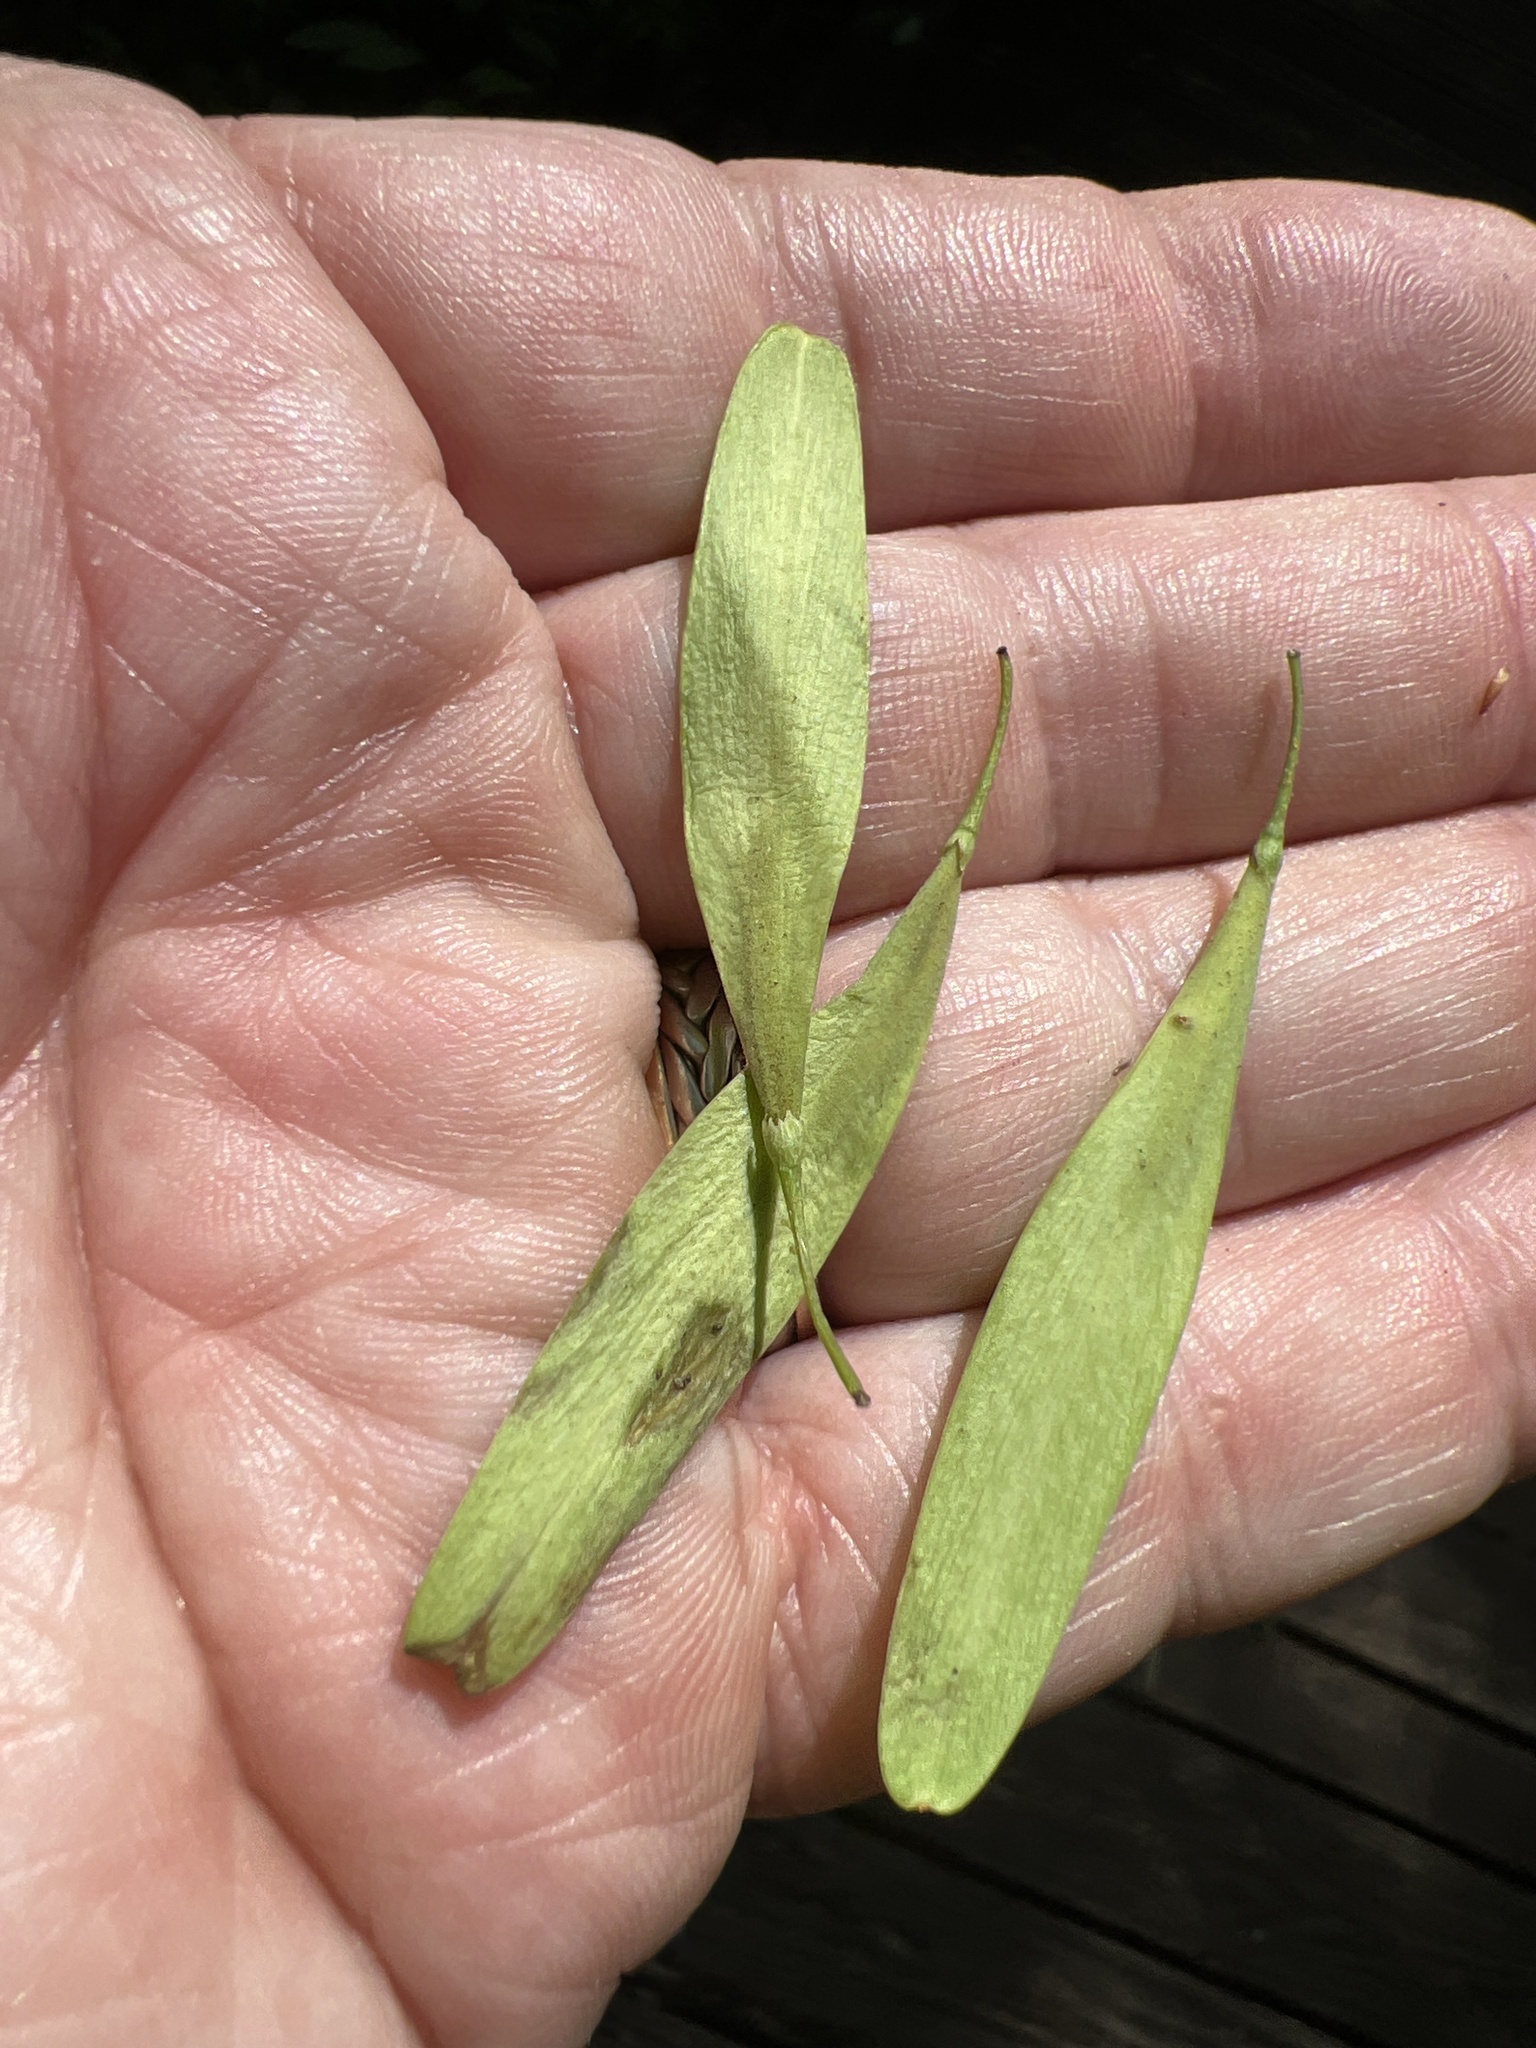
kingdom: Plantae
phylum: Tracheophyta
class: Magnoliopsida
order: Lamiales
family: Oleaceae
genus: Fraxinus
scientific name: Fraxinus pennsylvanica
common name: Green ash
